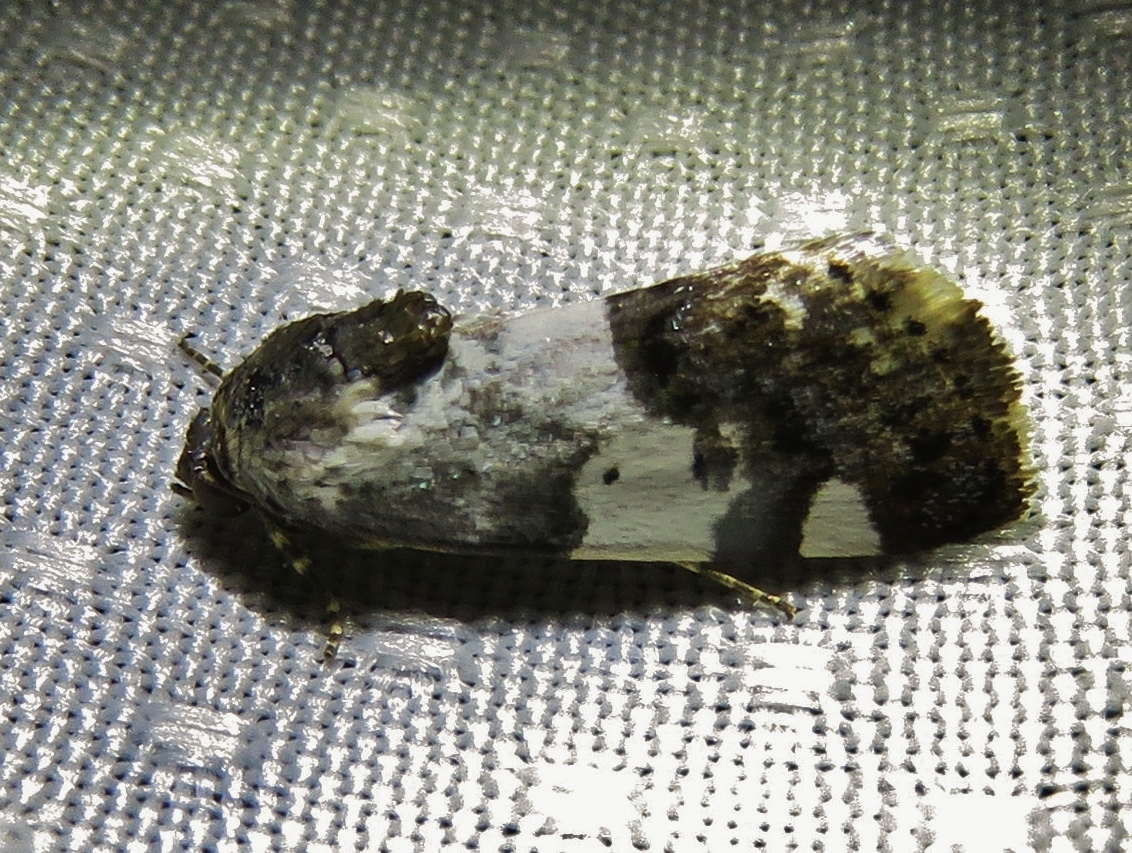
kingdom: Animalia
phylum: Arthropoda
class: Insecta
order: Lepidoptera
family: Noctuidae
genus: Acontia
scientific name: Acontia aprica
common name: Nun
